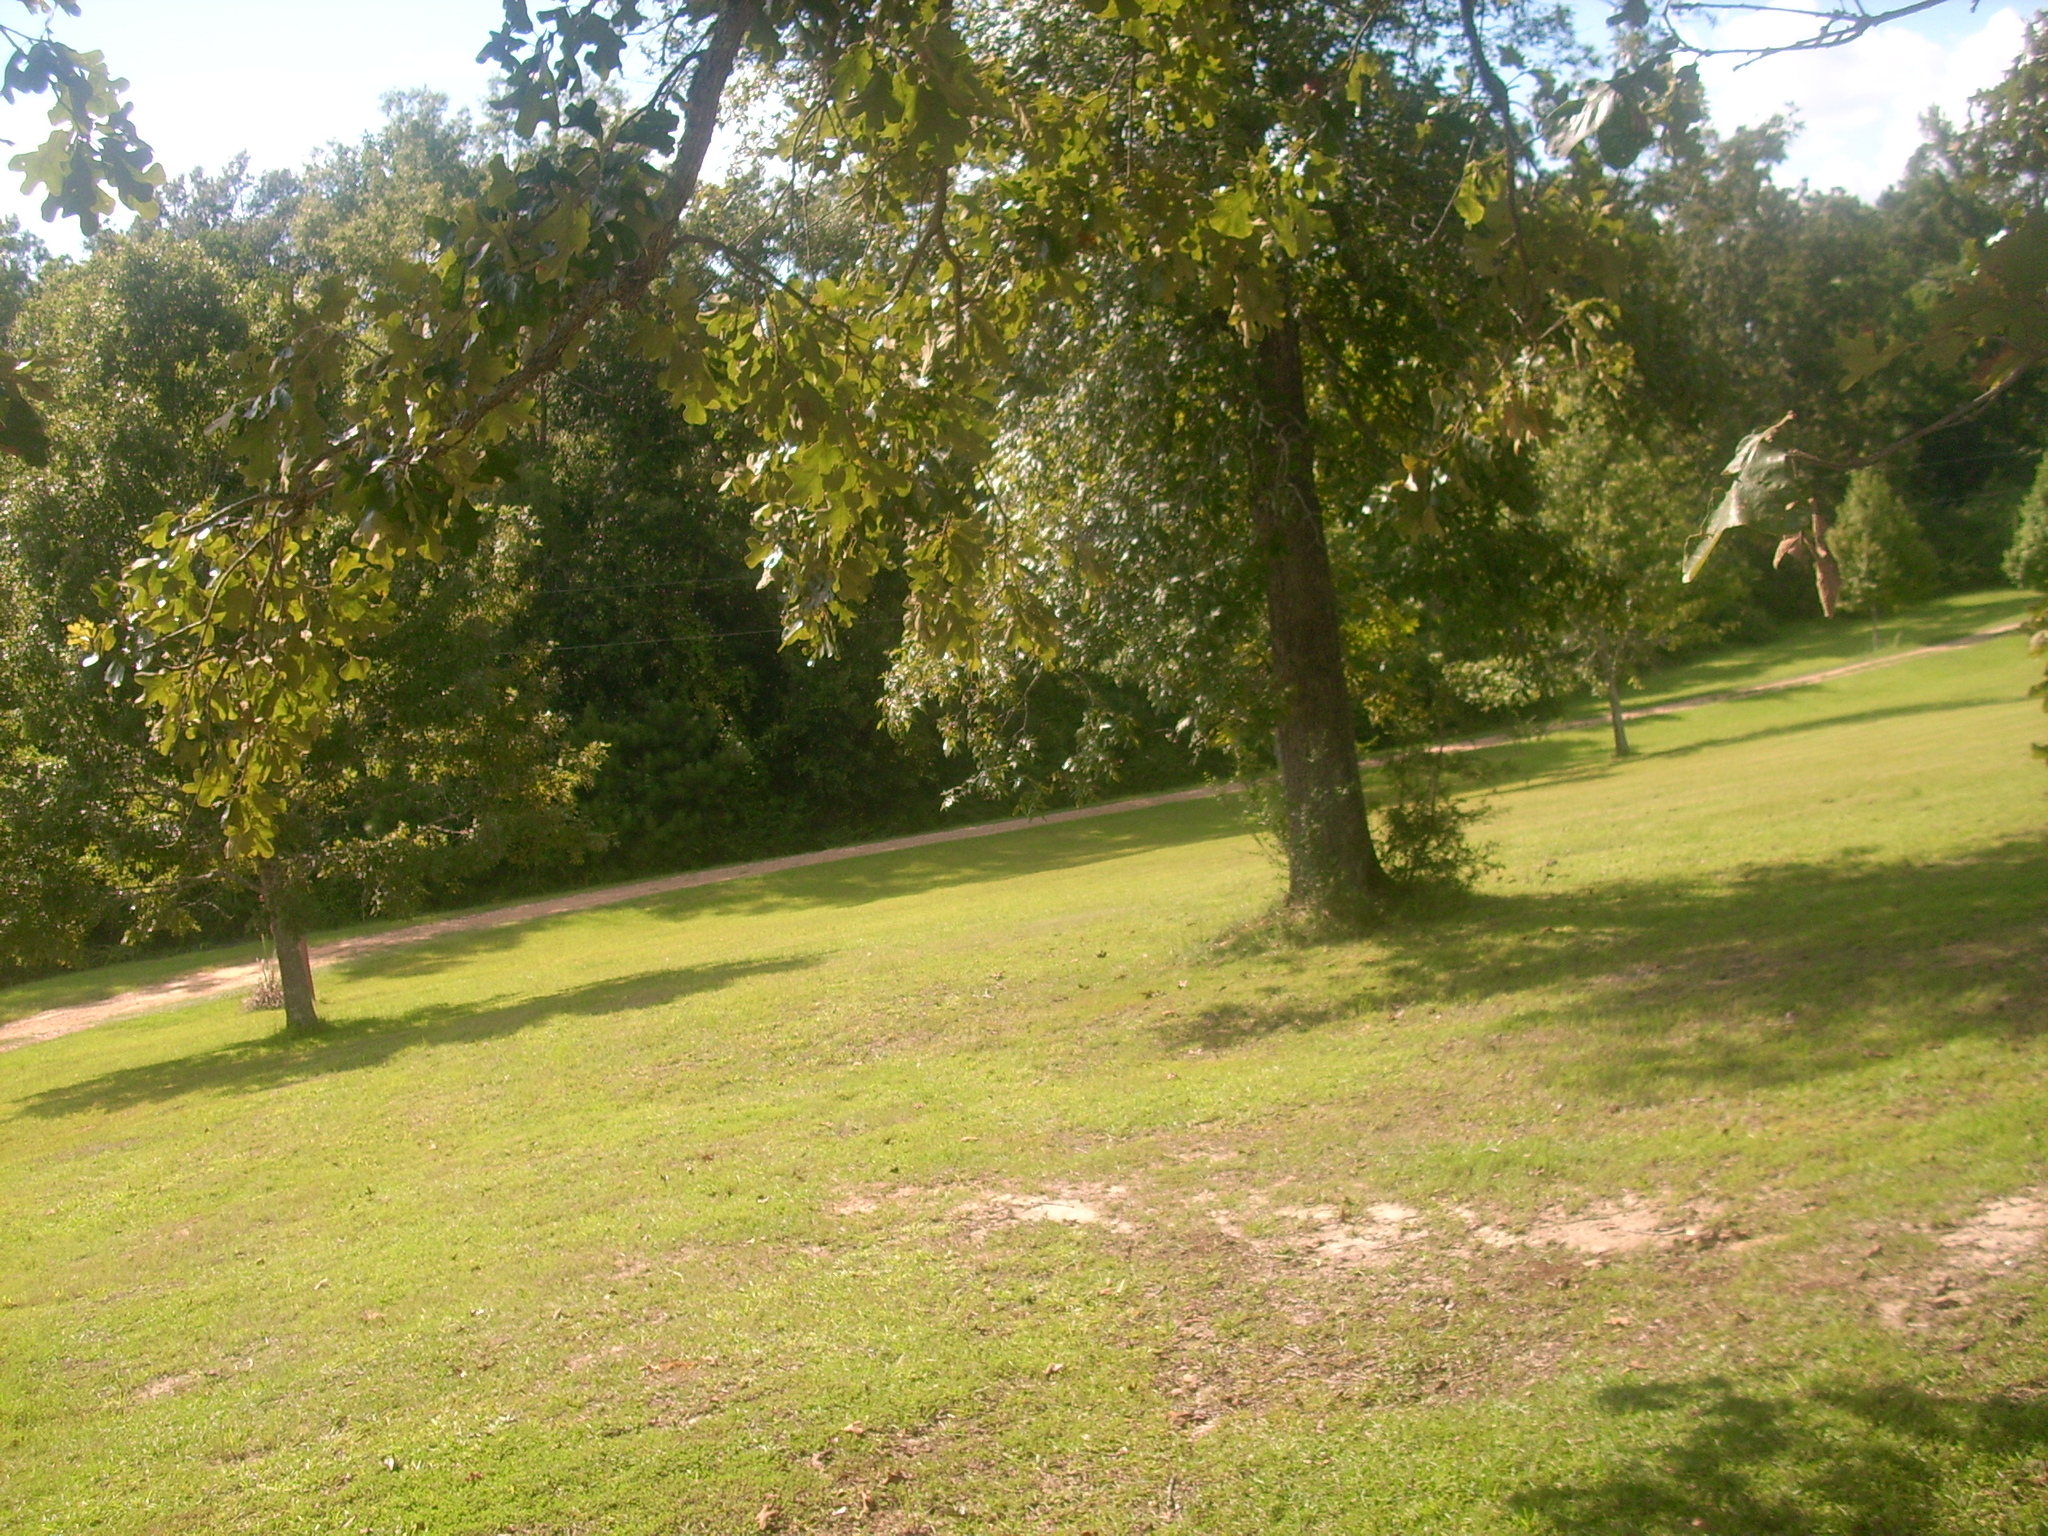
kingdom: Plantae
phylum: Tracheophyta
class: Magnoliopsida
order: Fagales
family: Fagaceae
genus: Quercus
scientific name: Quercus stellata
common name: Post oak
